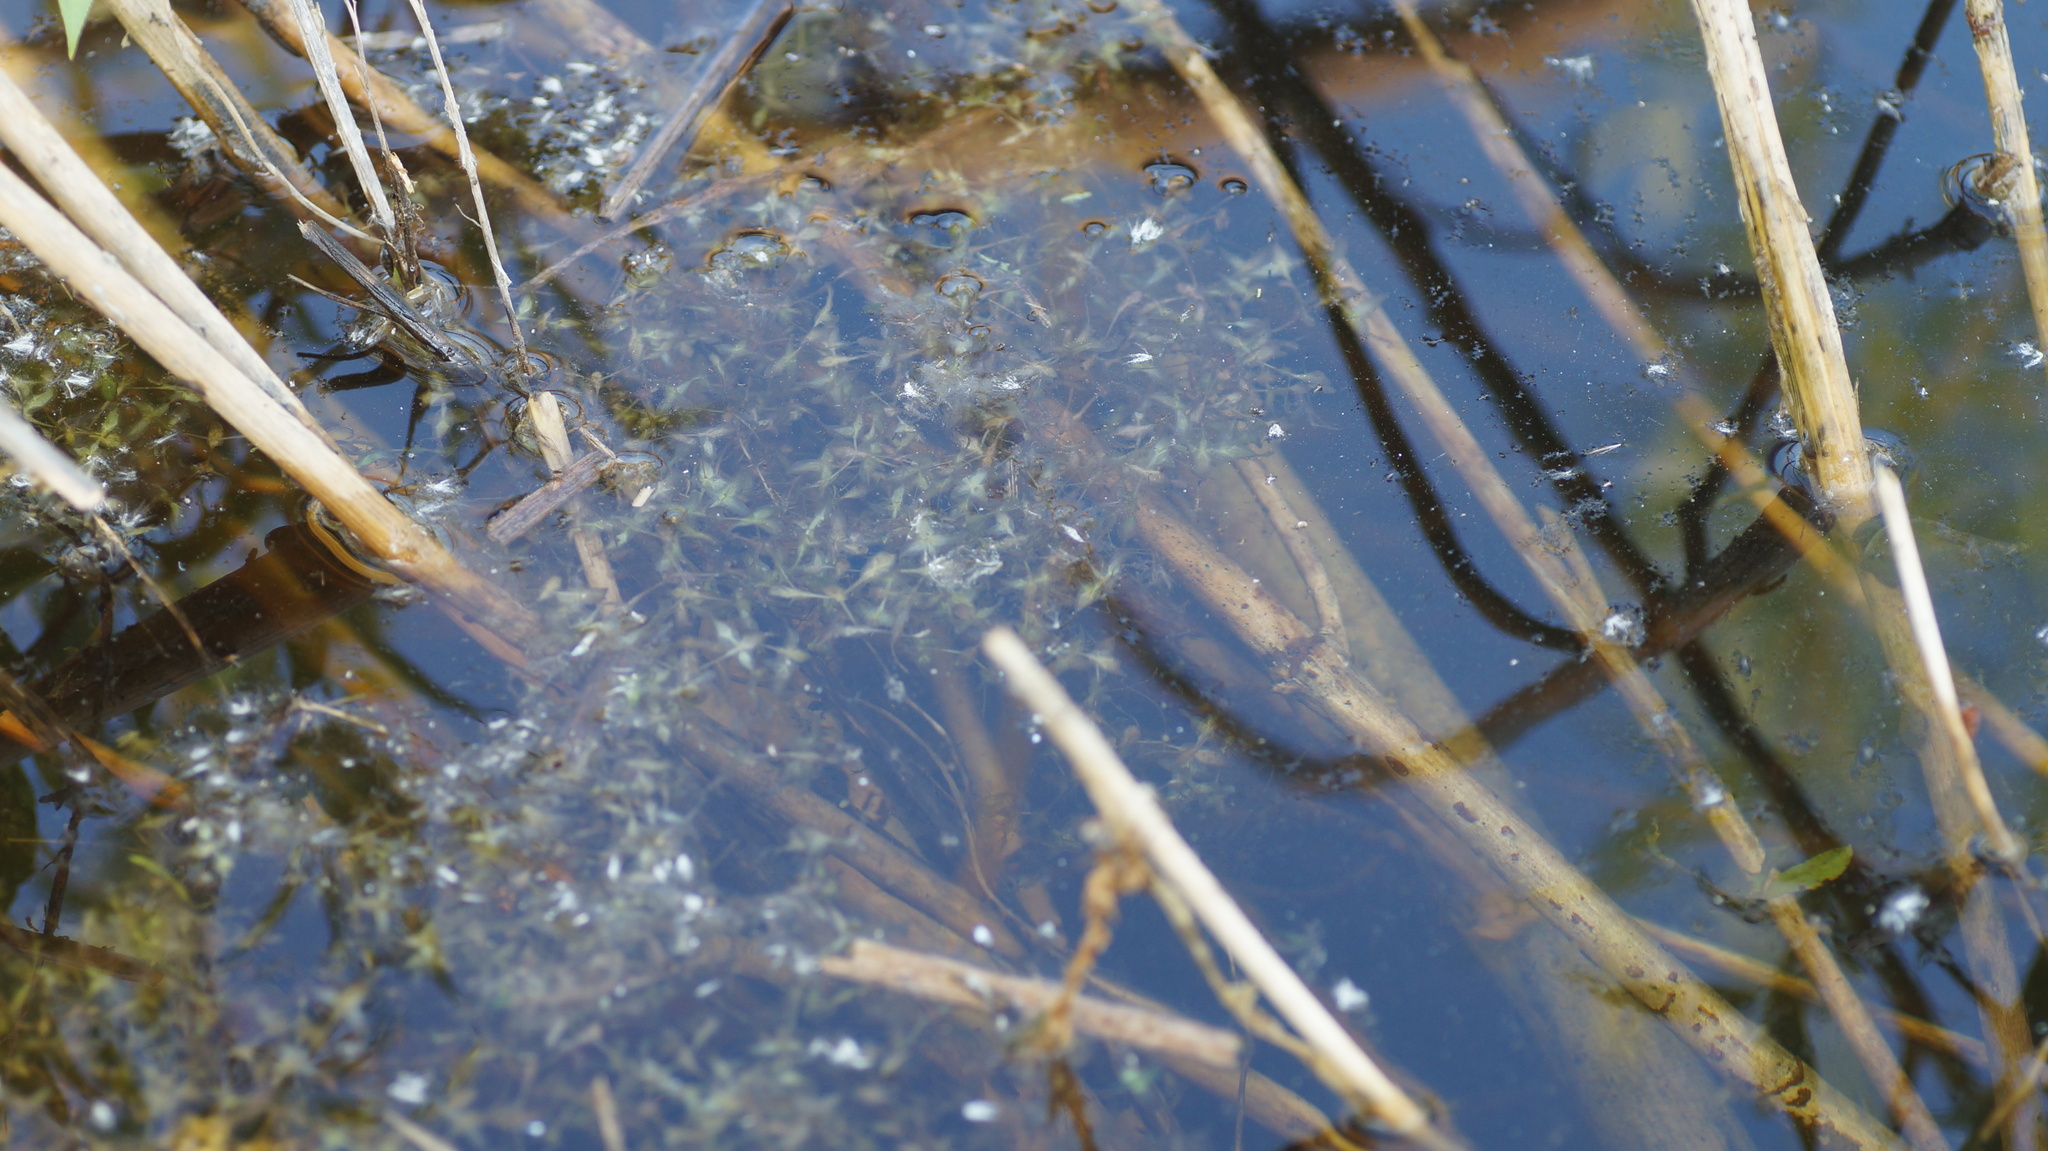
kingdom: Plantae
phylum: Tracheophyta
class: Liliopsida
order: Alismatales
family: Araceae
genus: Lemna
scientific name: Lemna trisulca
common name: Ivy-leaved duckweed
